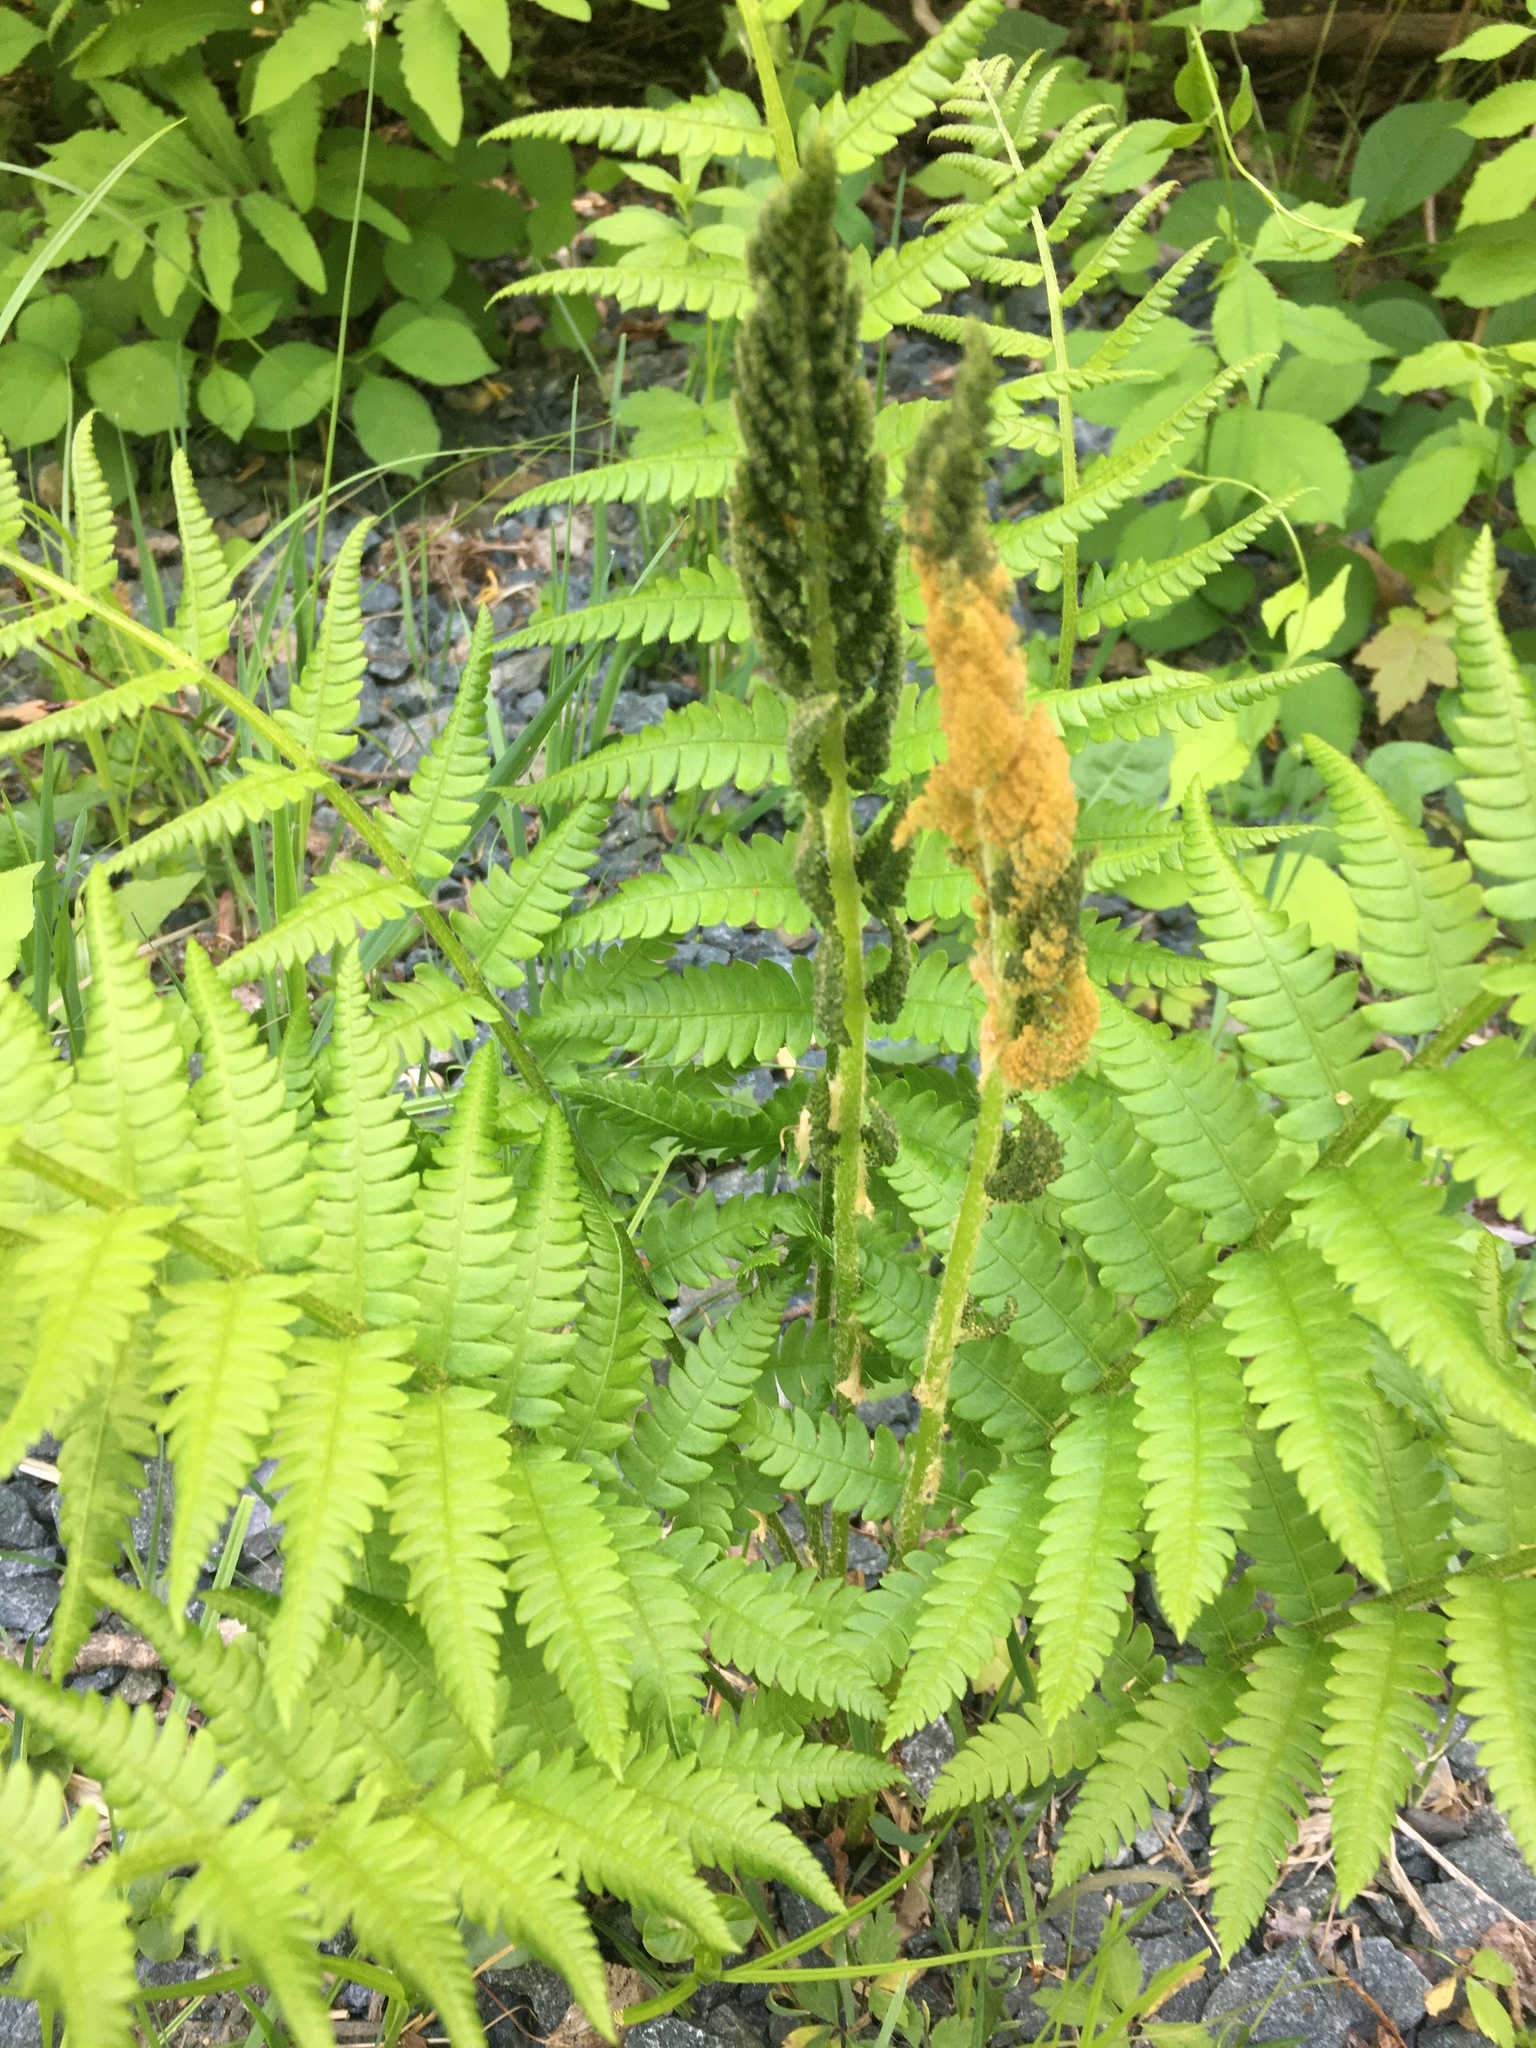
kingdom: Plantae
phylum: Tracheophyta
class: Polypodiopsida
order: Osmundales
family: Osmundaceae
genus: Osmundastrum
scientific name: Osmundastrum cinnamomeum
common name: Cinnamon fern
